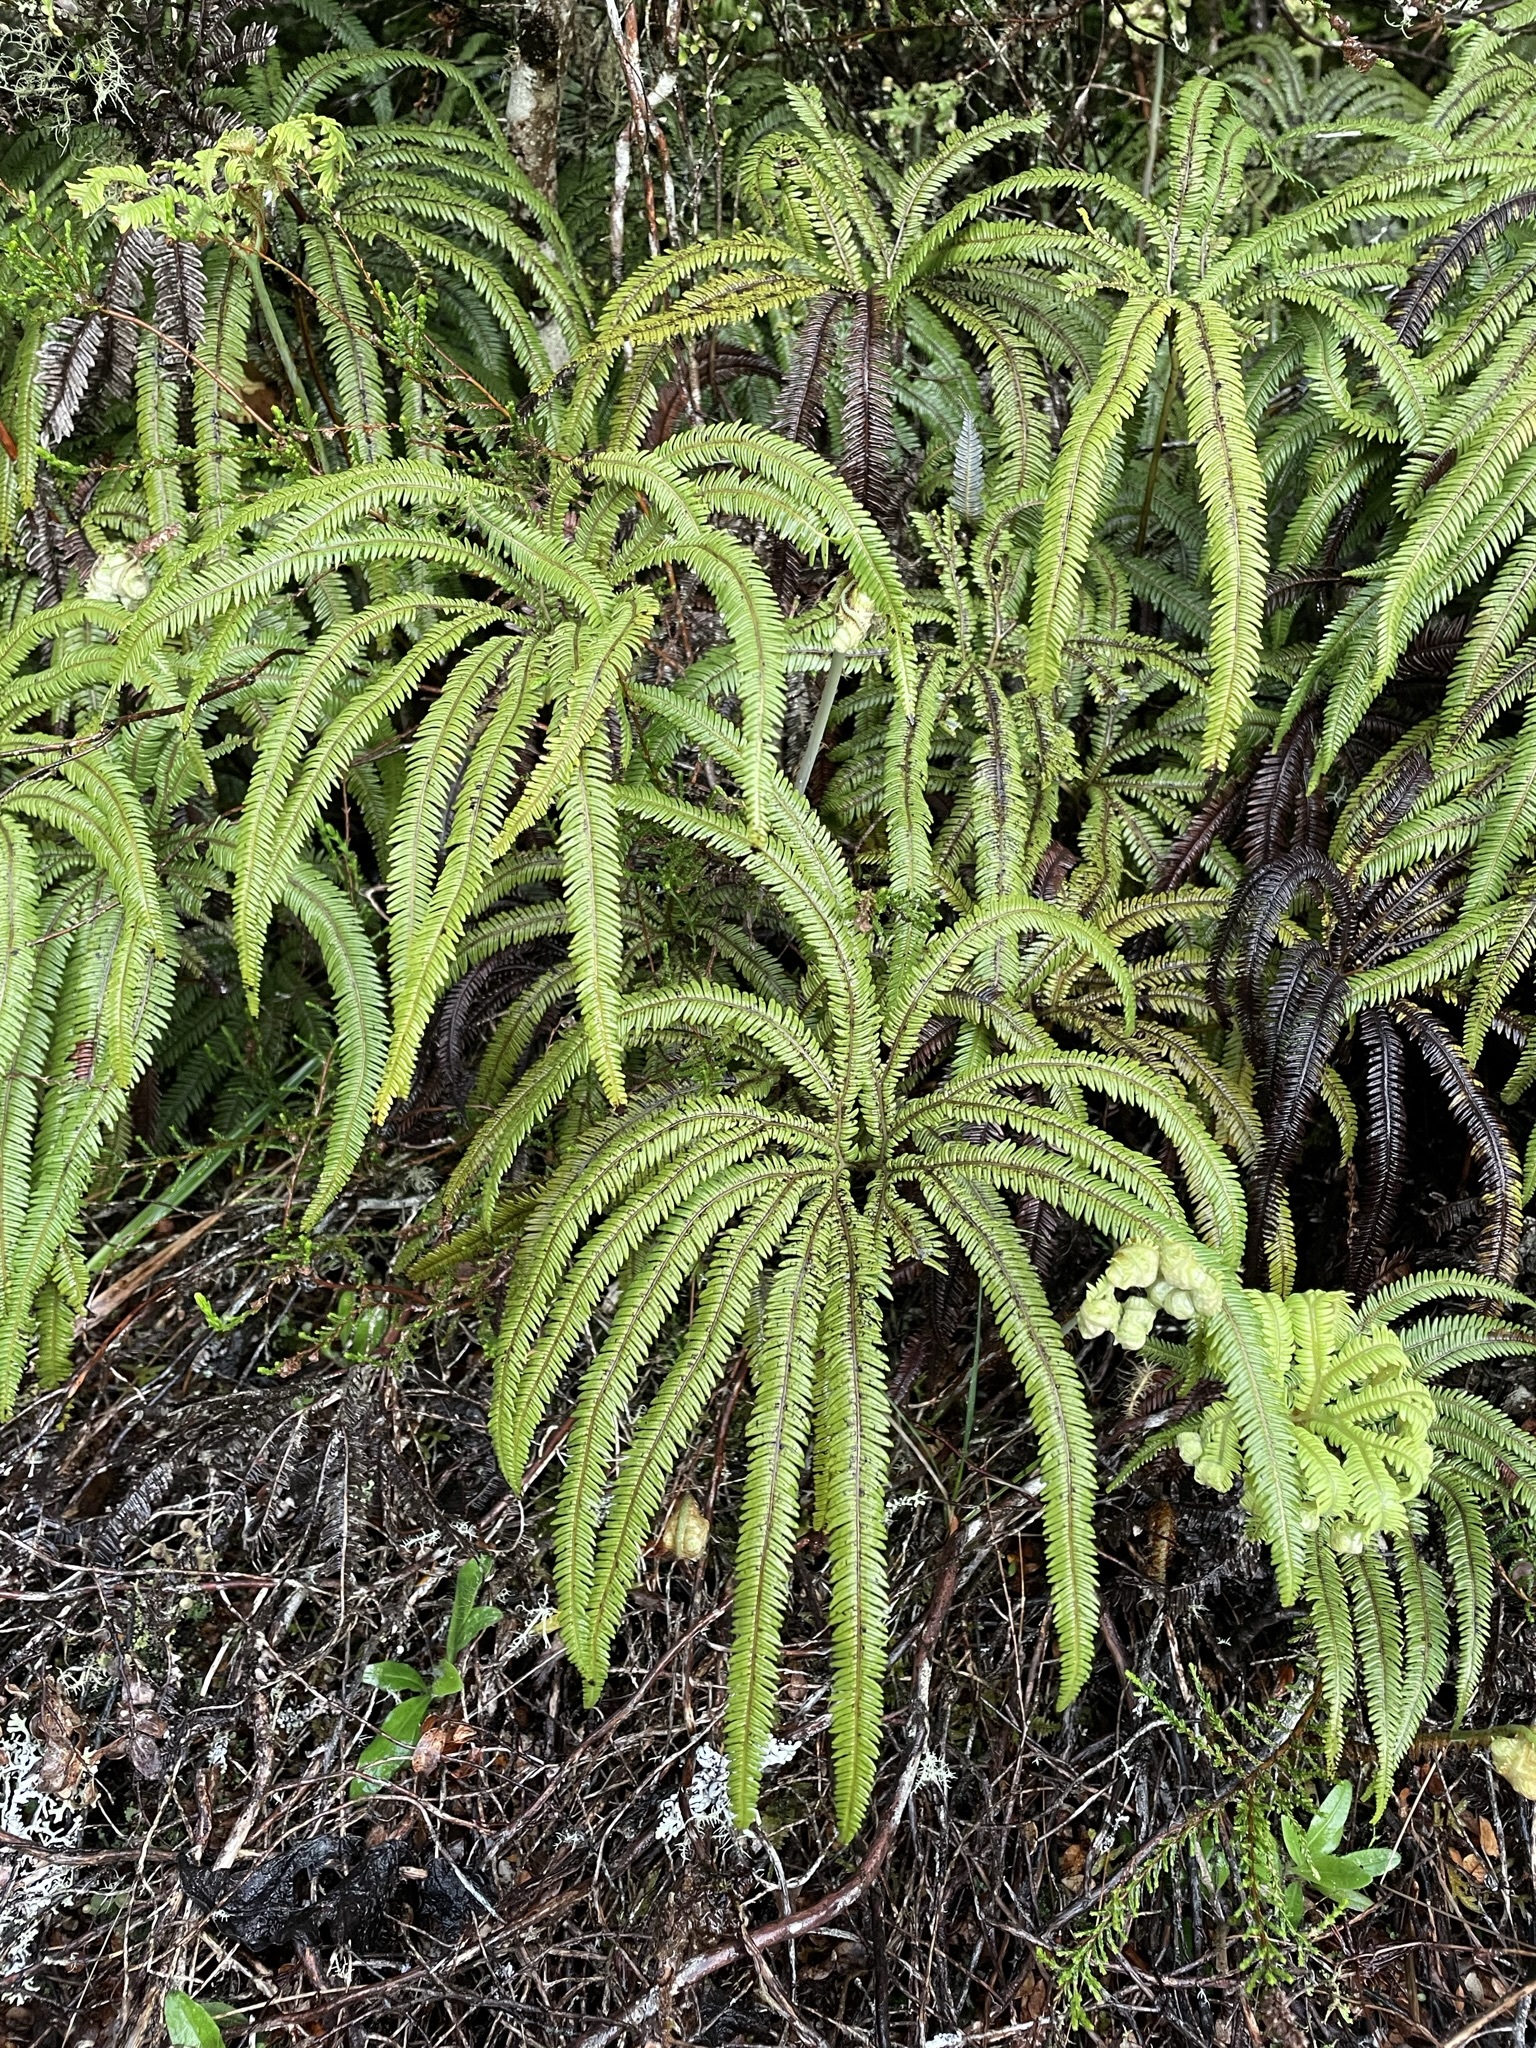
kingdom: Plantae
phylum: Tracheophyta
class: Polypodiopsida
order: Gleicheniales
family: Gleicheniaceae
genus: Sticherus
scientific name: Sticherus cunninghamii
